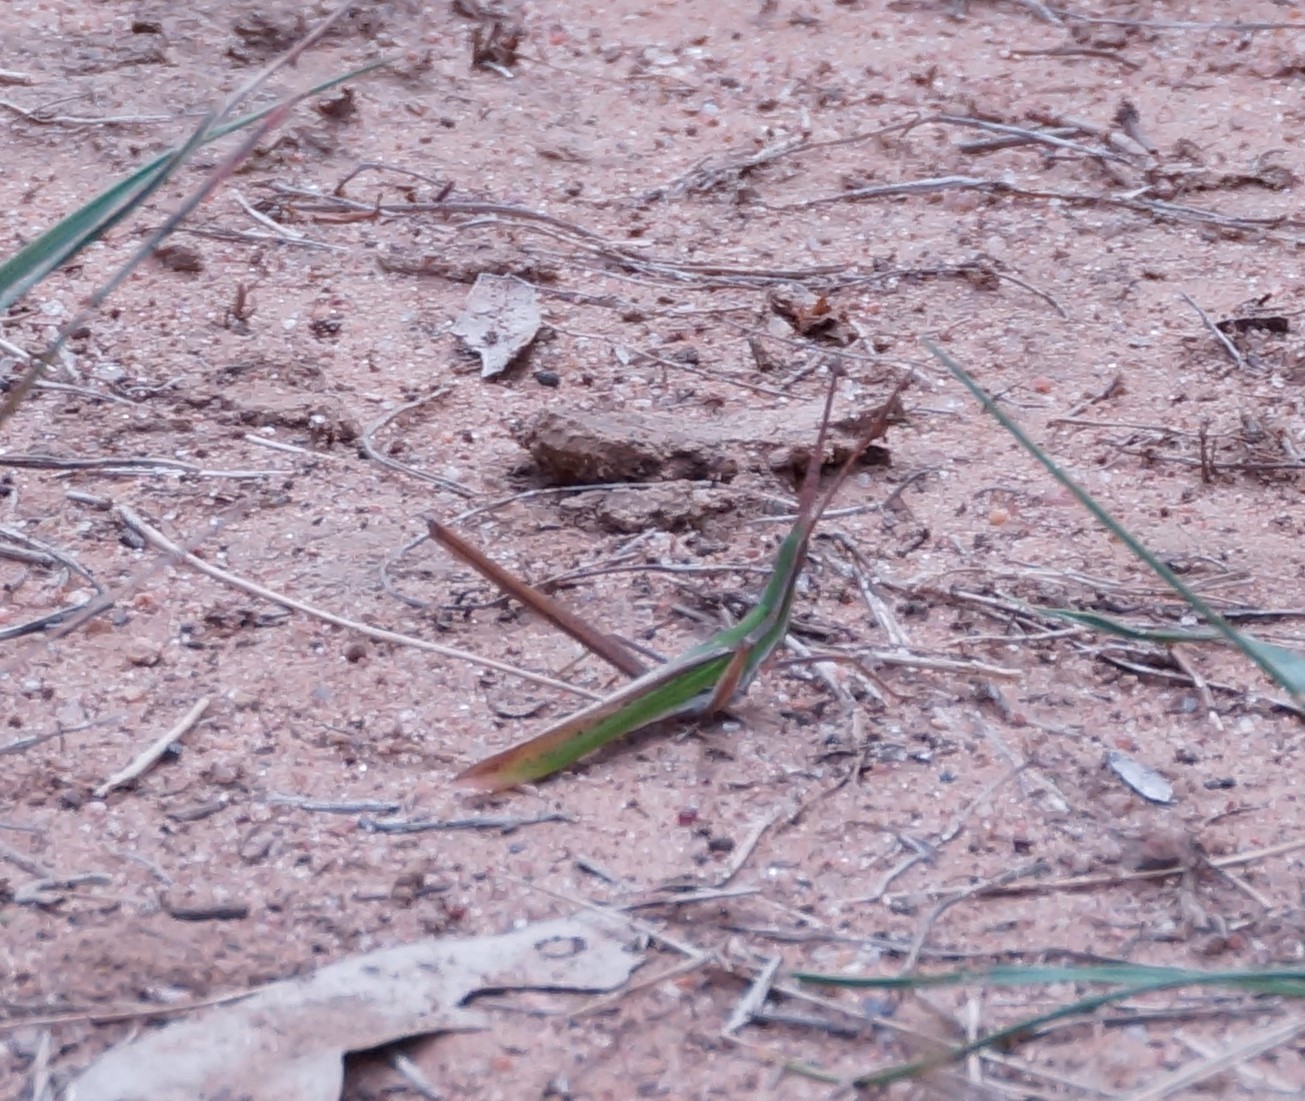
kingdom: Animalia
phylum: Arthropoda
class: Insecta
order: Orthoptera
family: Acrididae
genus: Acrida
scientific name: Acrida conica
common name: Giant green slantface
